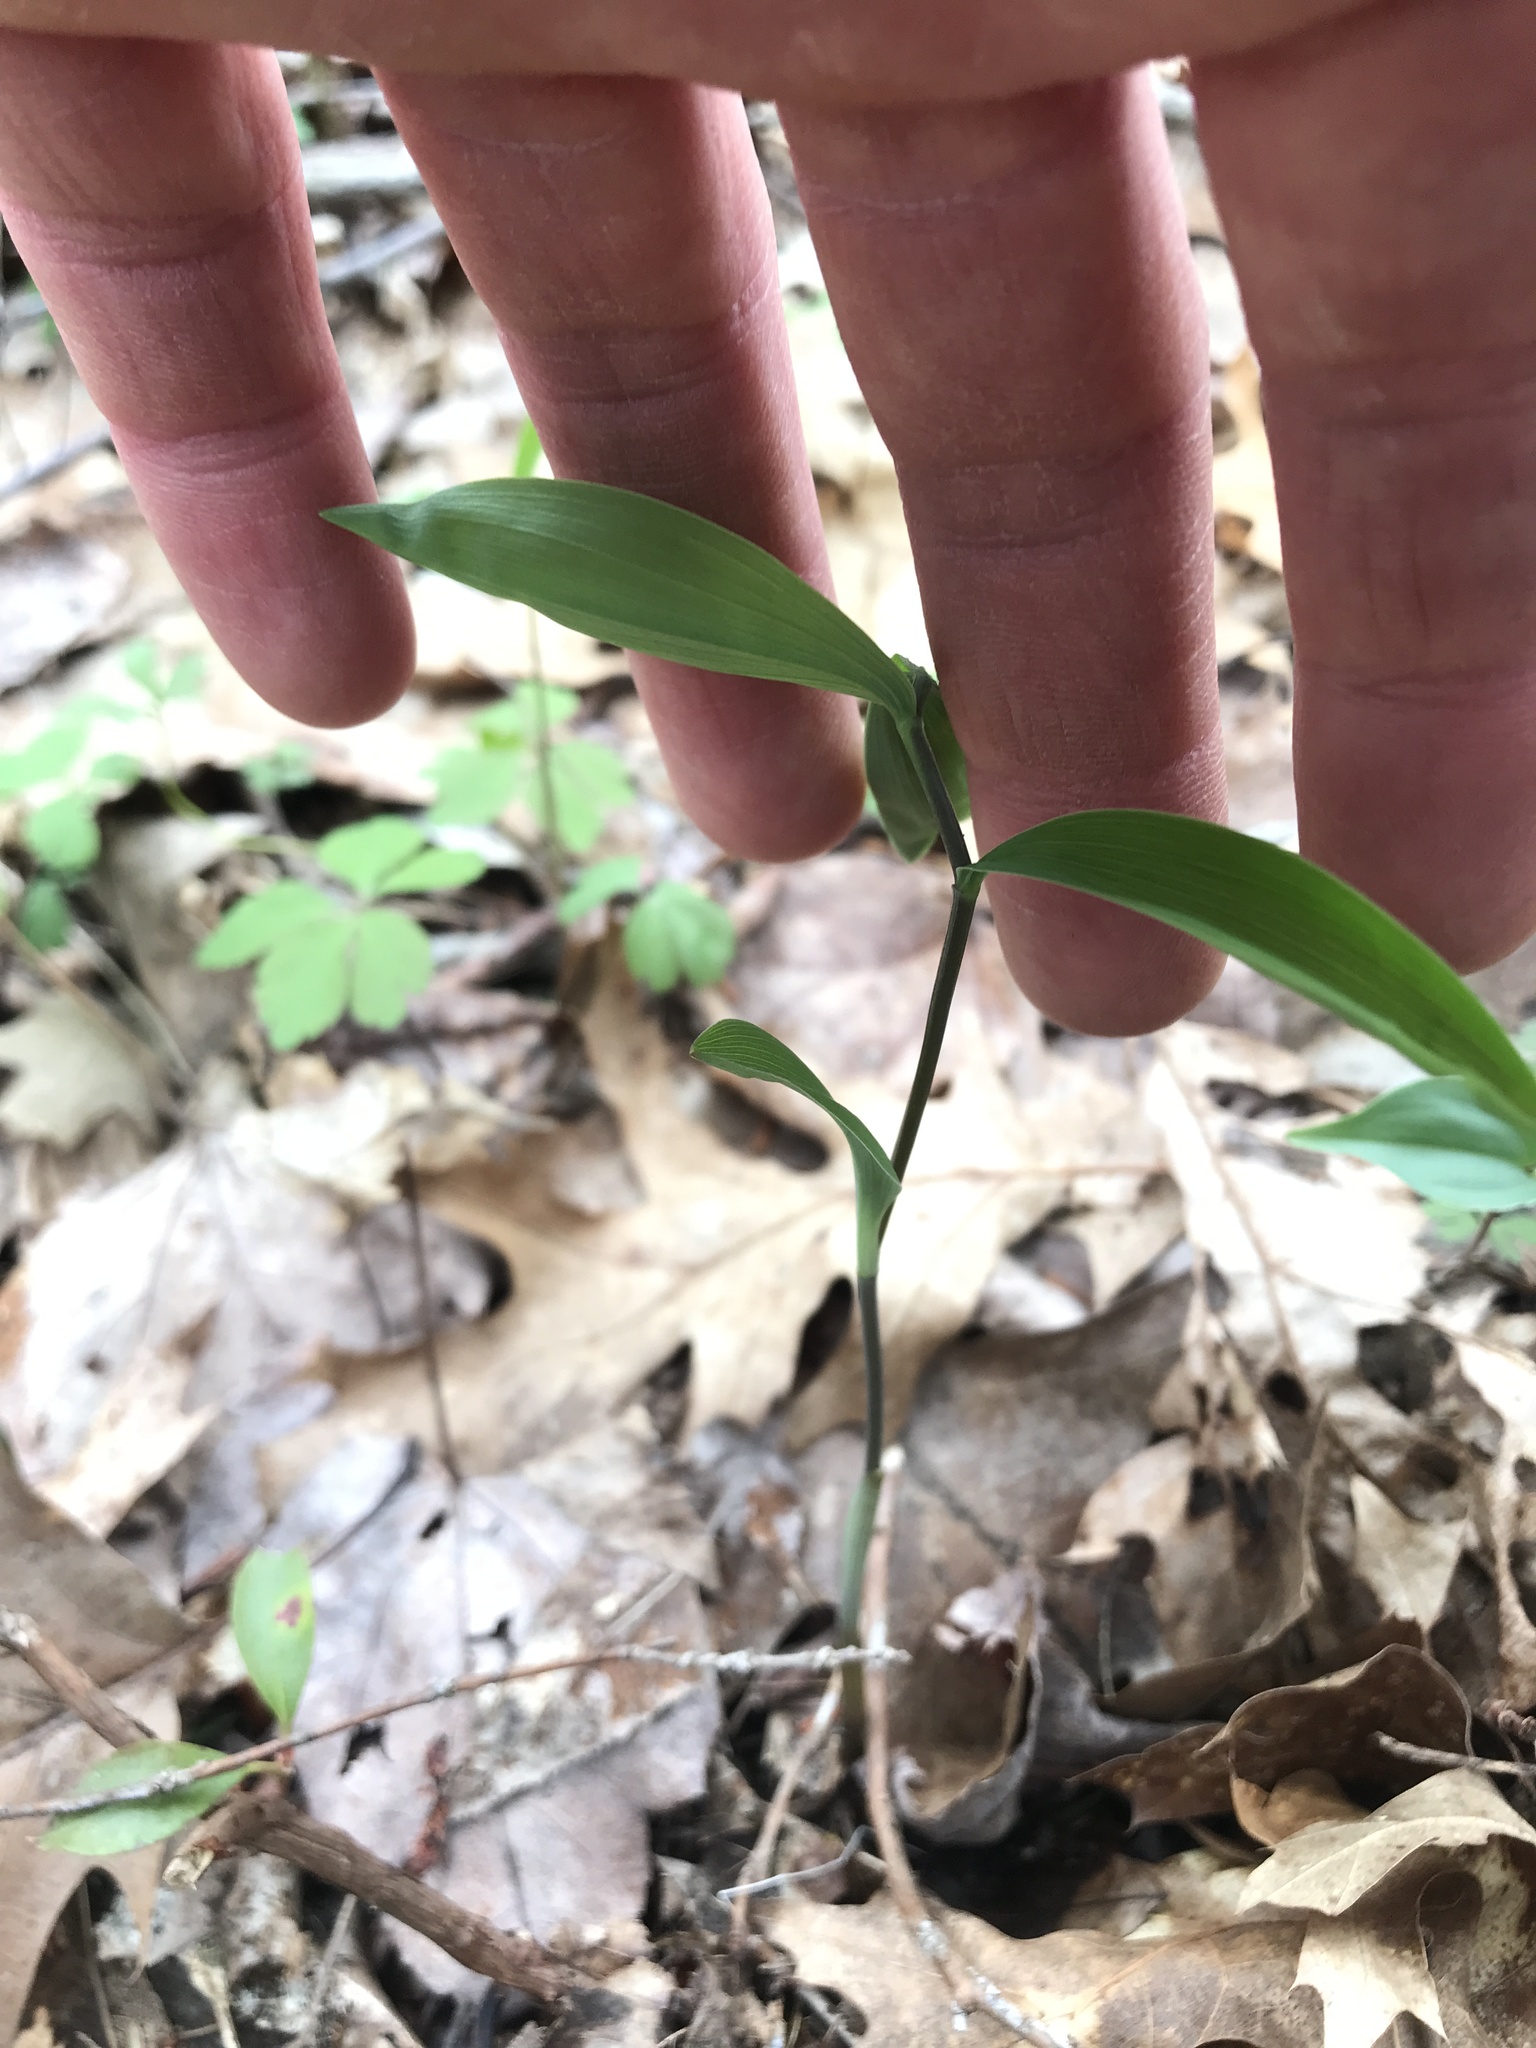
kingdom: Plantae
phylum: Tracheophyta
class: Liliopsida
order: Liliales
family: Colchicaceae
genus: Uvularia
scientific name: Uvularia sessilifolia
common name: Straw-lily
